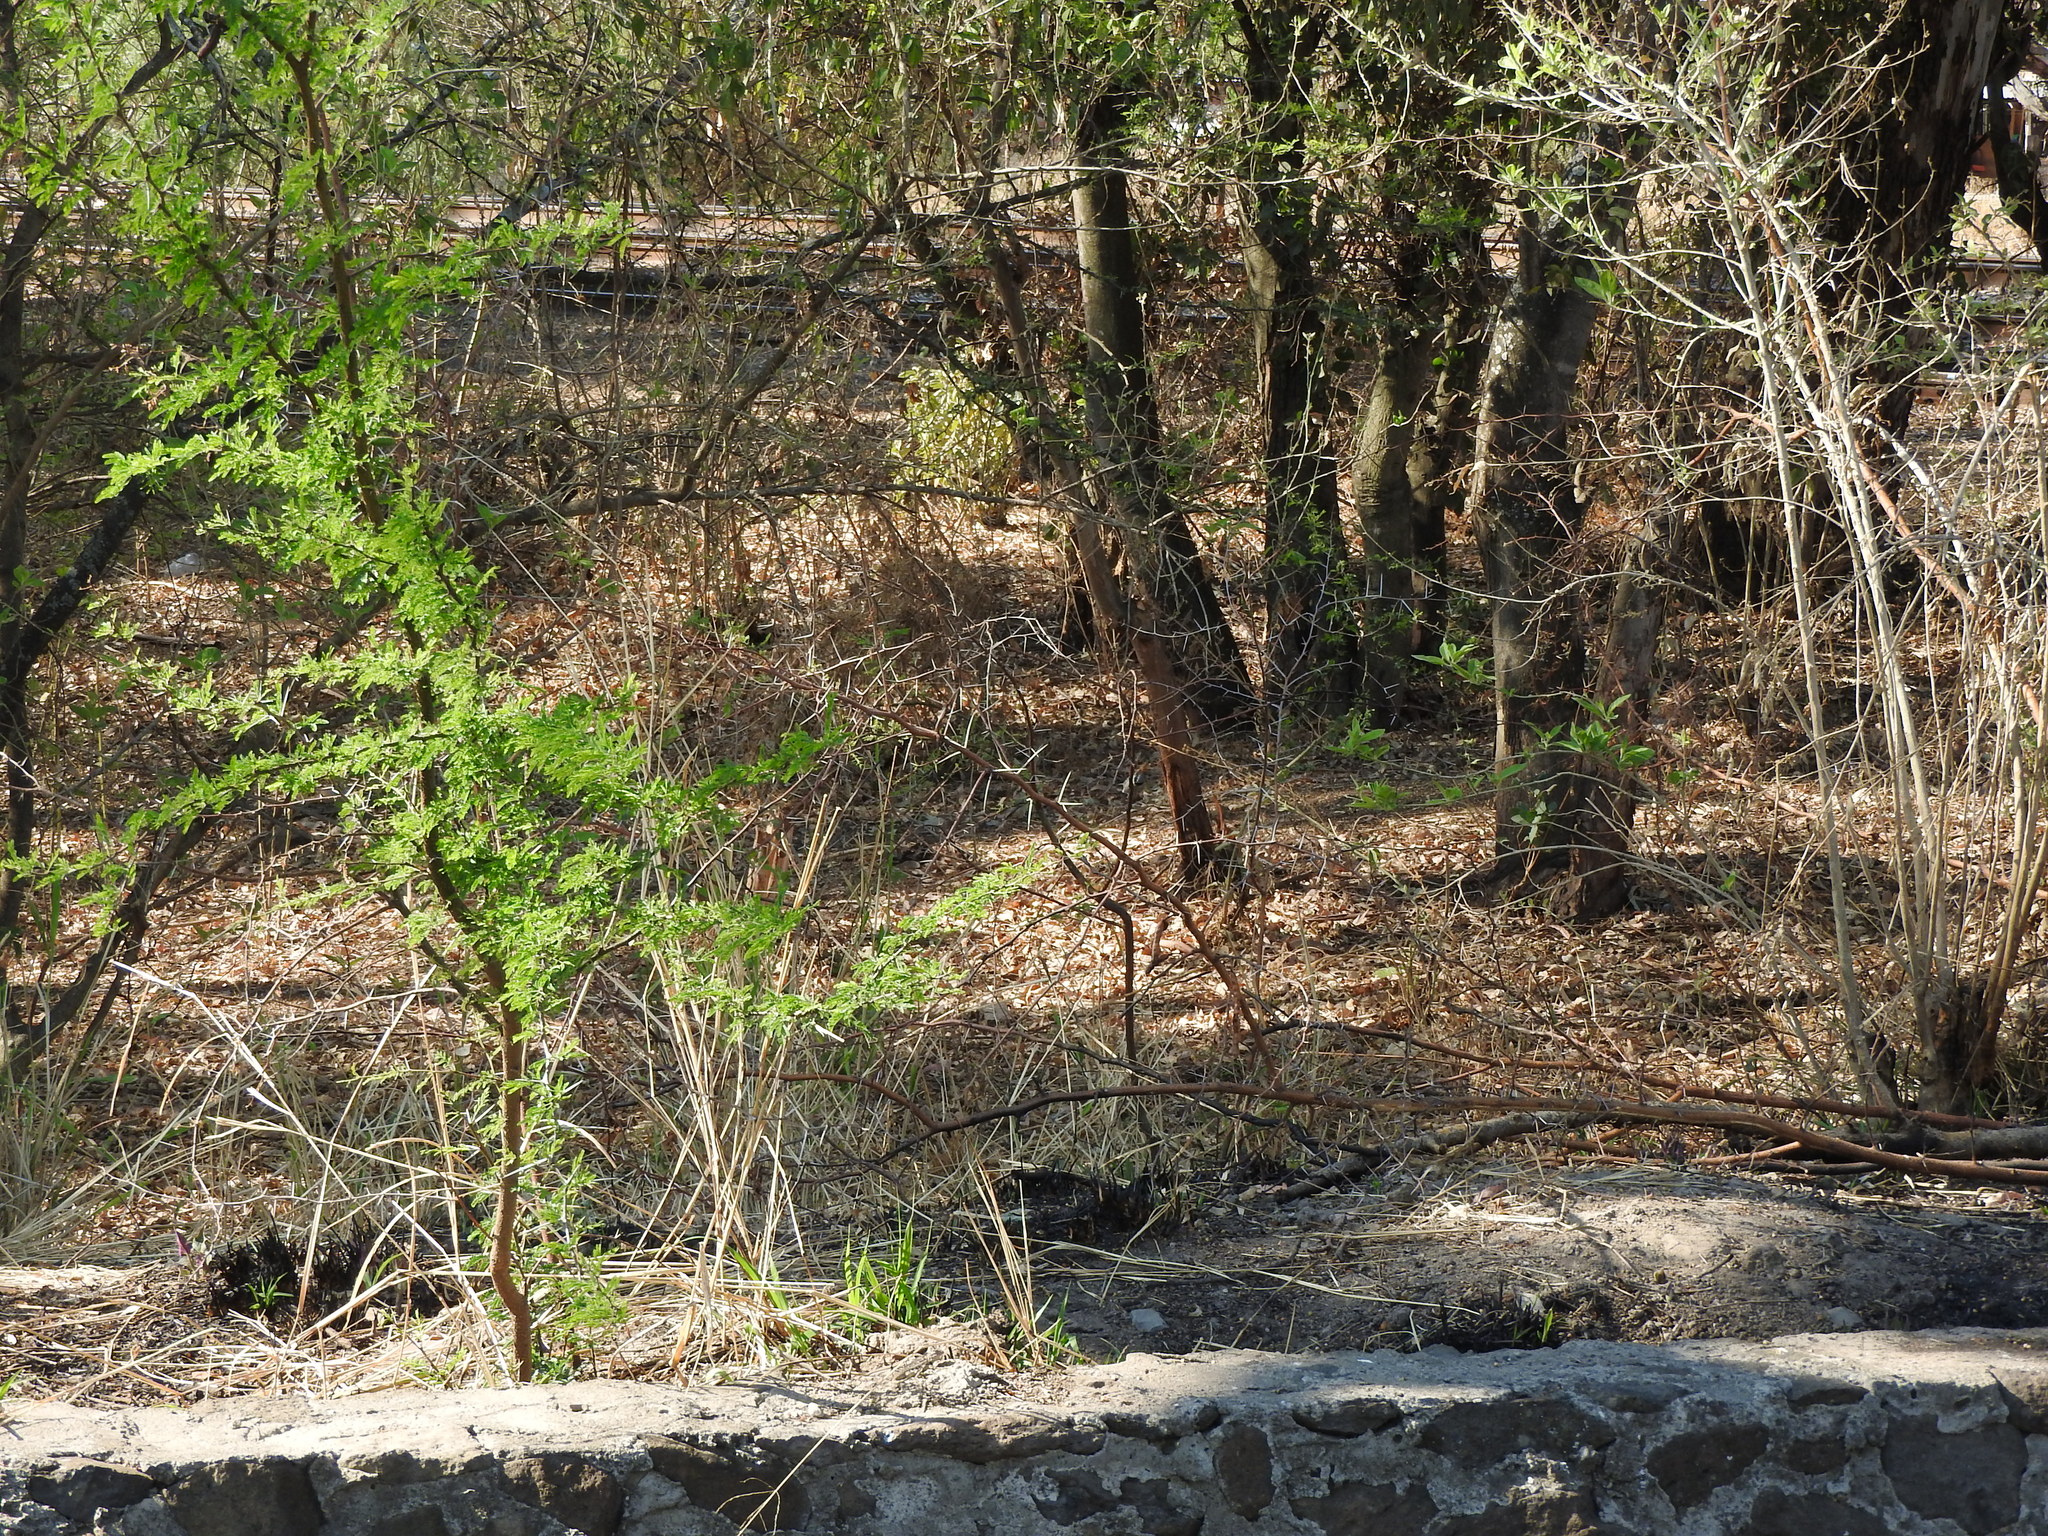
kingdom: Plantae
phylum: Tracheophyta
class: Magnoliopsida
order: Fabales
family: Fabaceae
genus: Vachellia
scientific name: Vachellia farnesiana
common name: Sweet acacia
